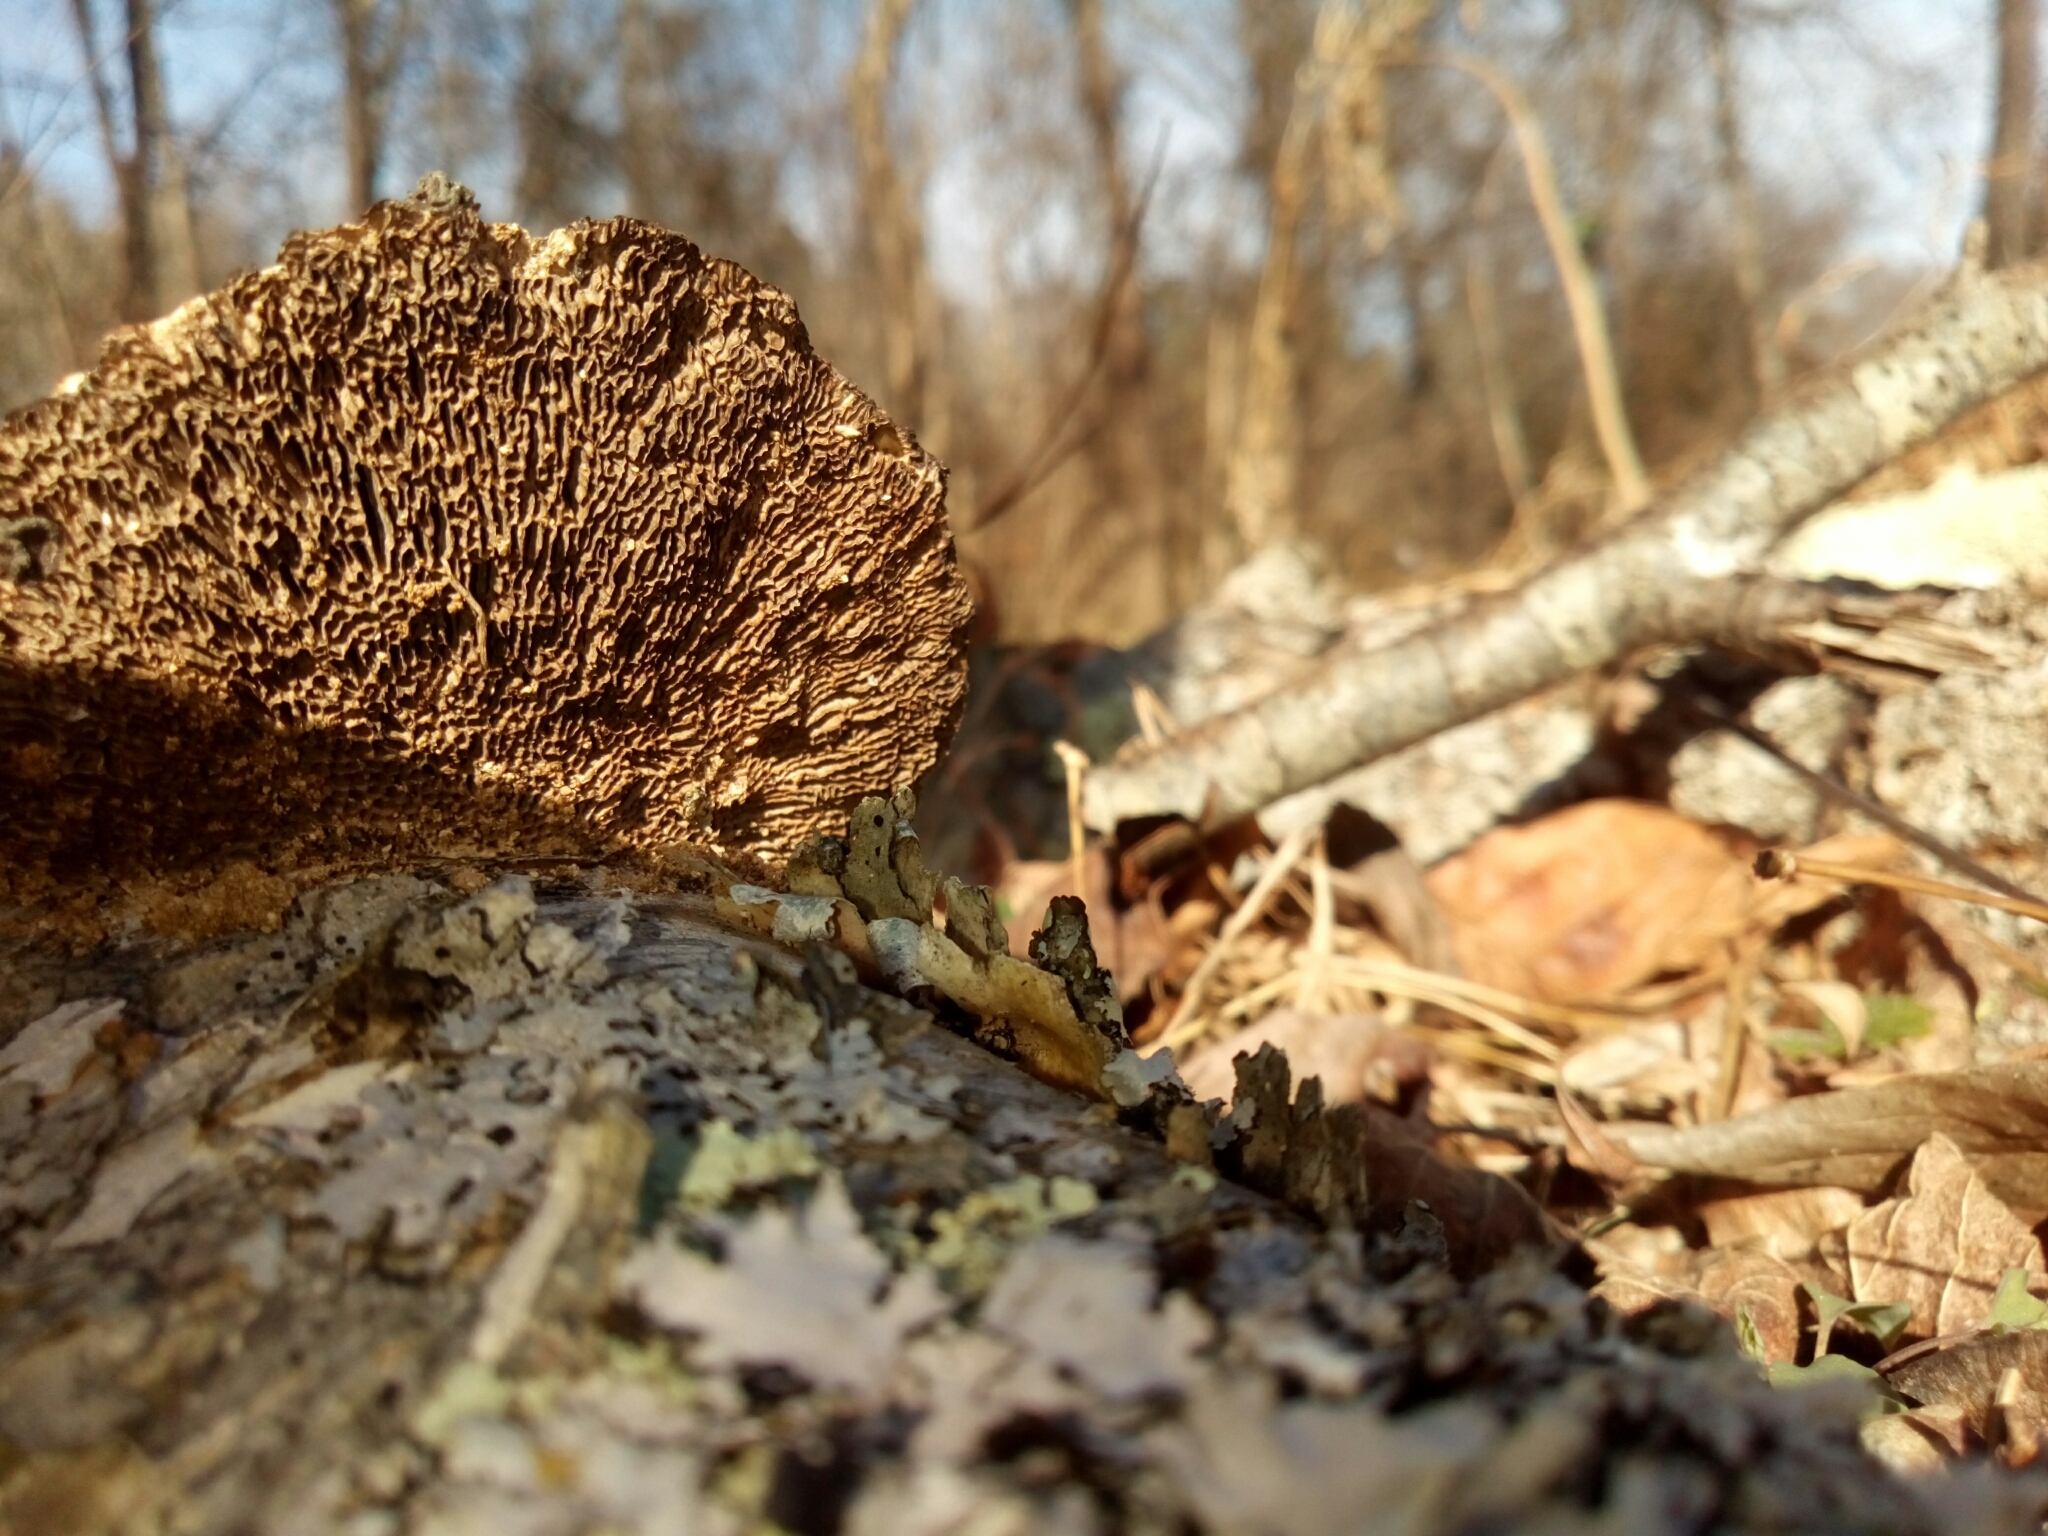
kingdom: Fungi
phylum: Basidiomycota
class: Agaricomycetes
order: Polyporales
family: Polyporaceae
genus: Daedaleopsis
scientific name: Daedaleopsis confragosa
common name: Blushing bracket
